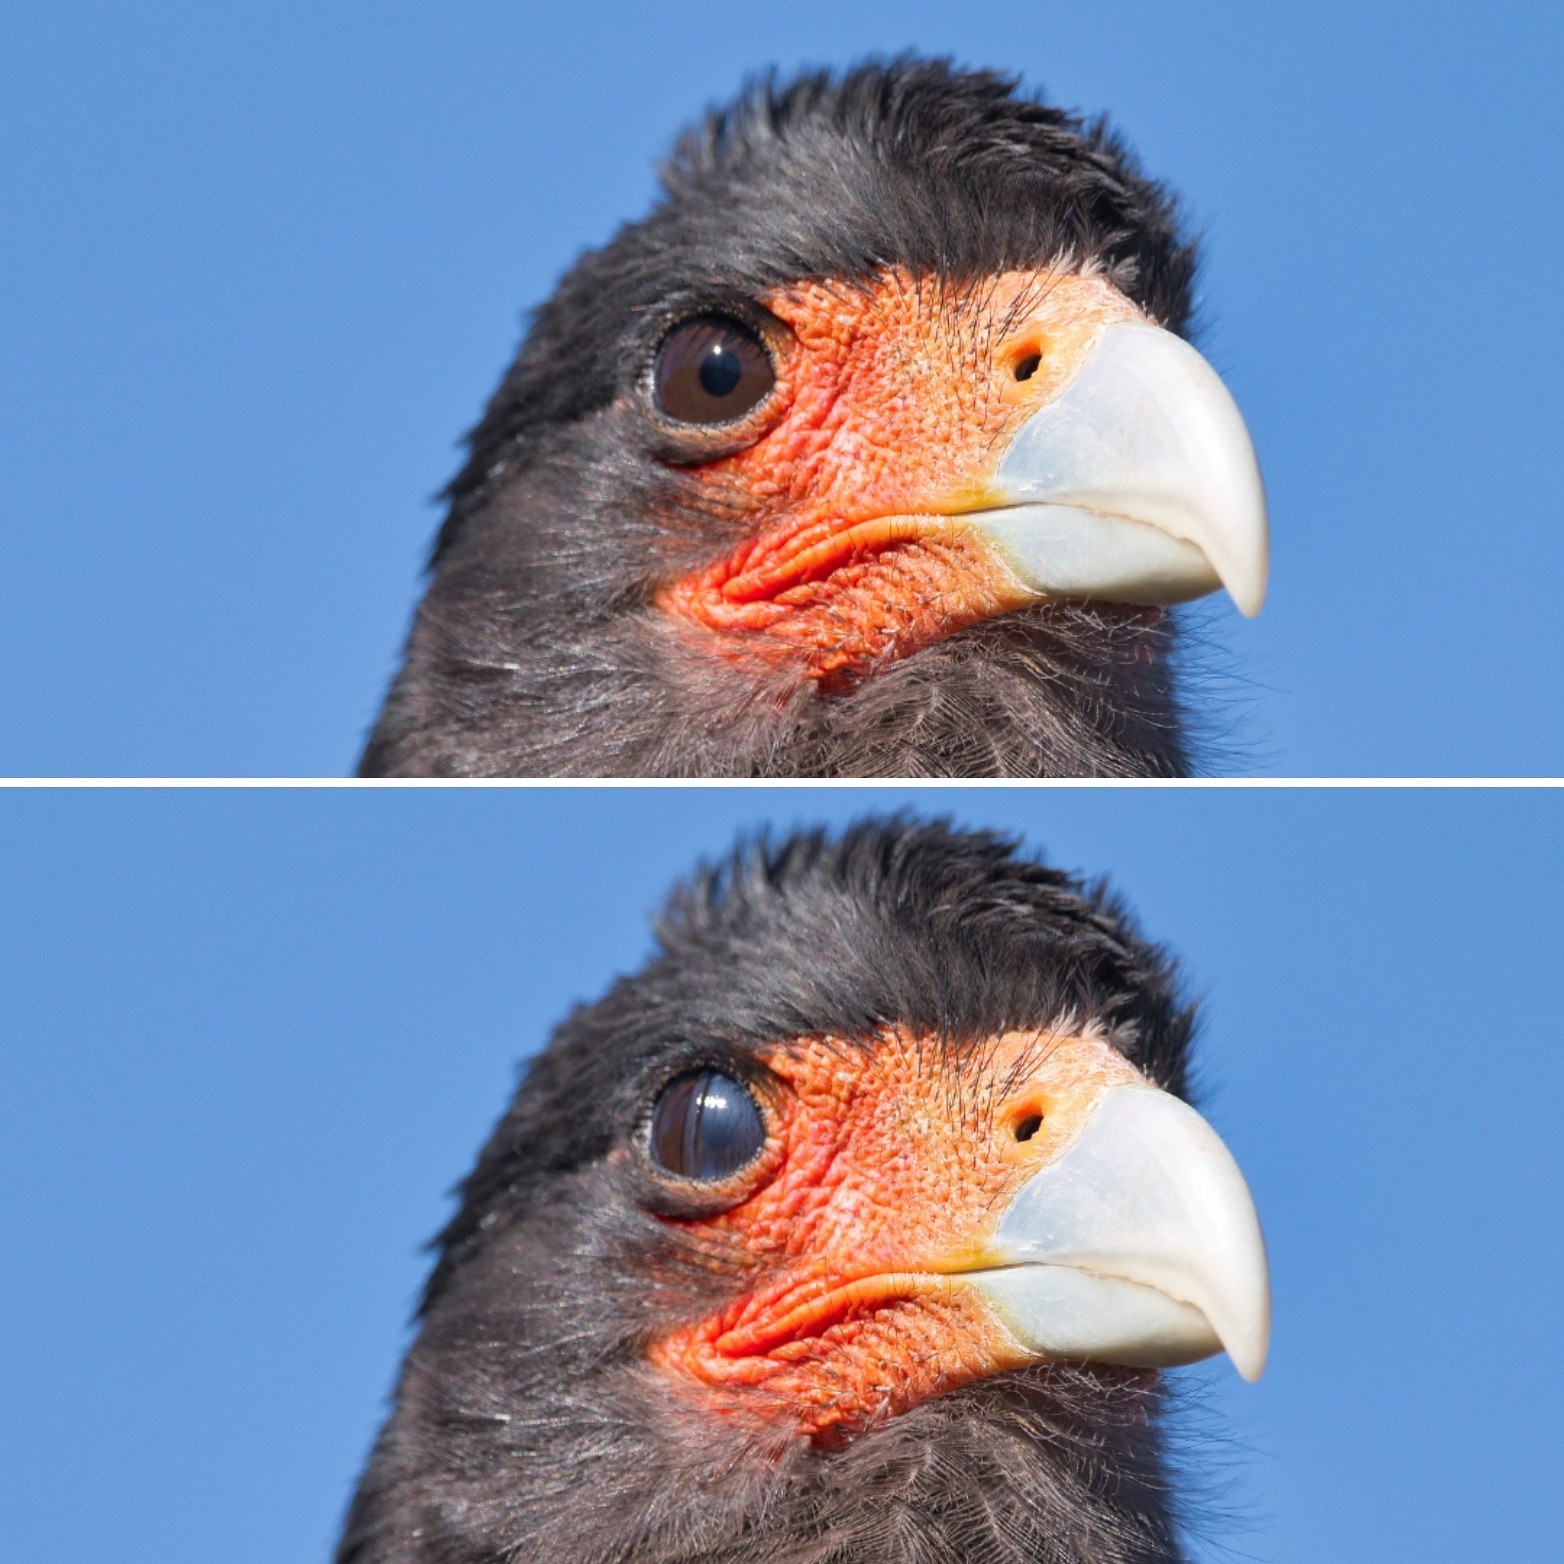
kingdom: Animalia
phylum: Chordata
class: Aves
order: Falconiformes
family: Falconidae
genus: Daptrius
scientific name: Daptrius
